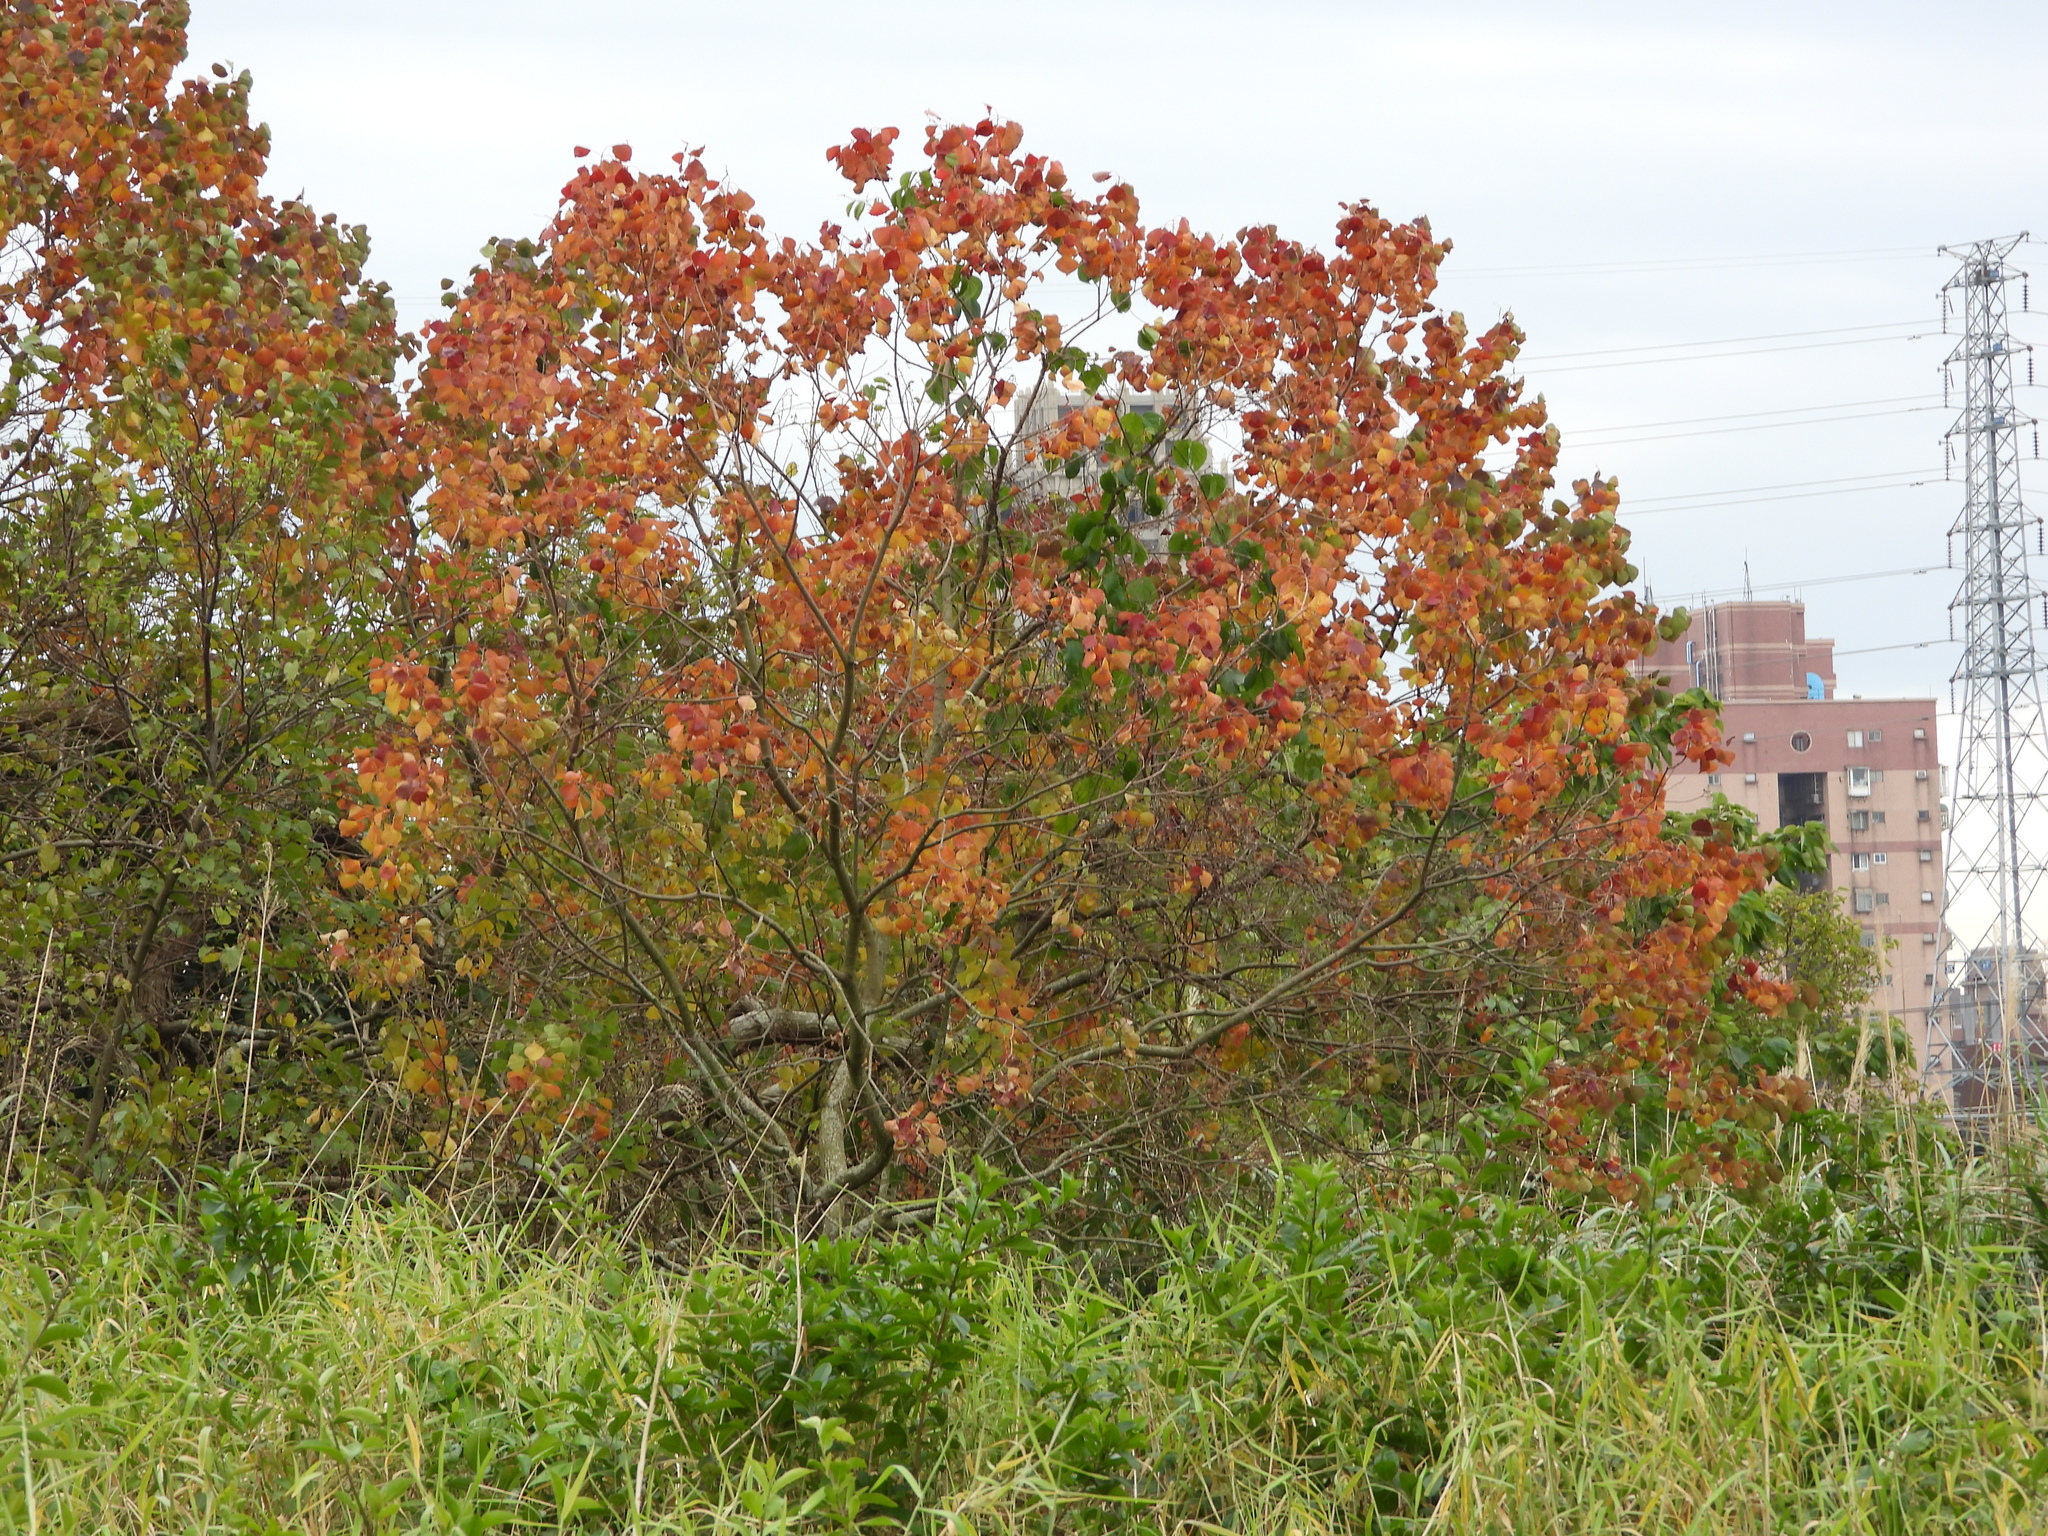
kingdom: Plantae
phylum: Tracheophyta
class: Magnoliopsida
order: Malpighiales
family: Euphorbiaceae
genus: Triadica
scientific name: Triadica sebifera
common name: Chinese tallow
